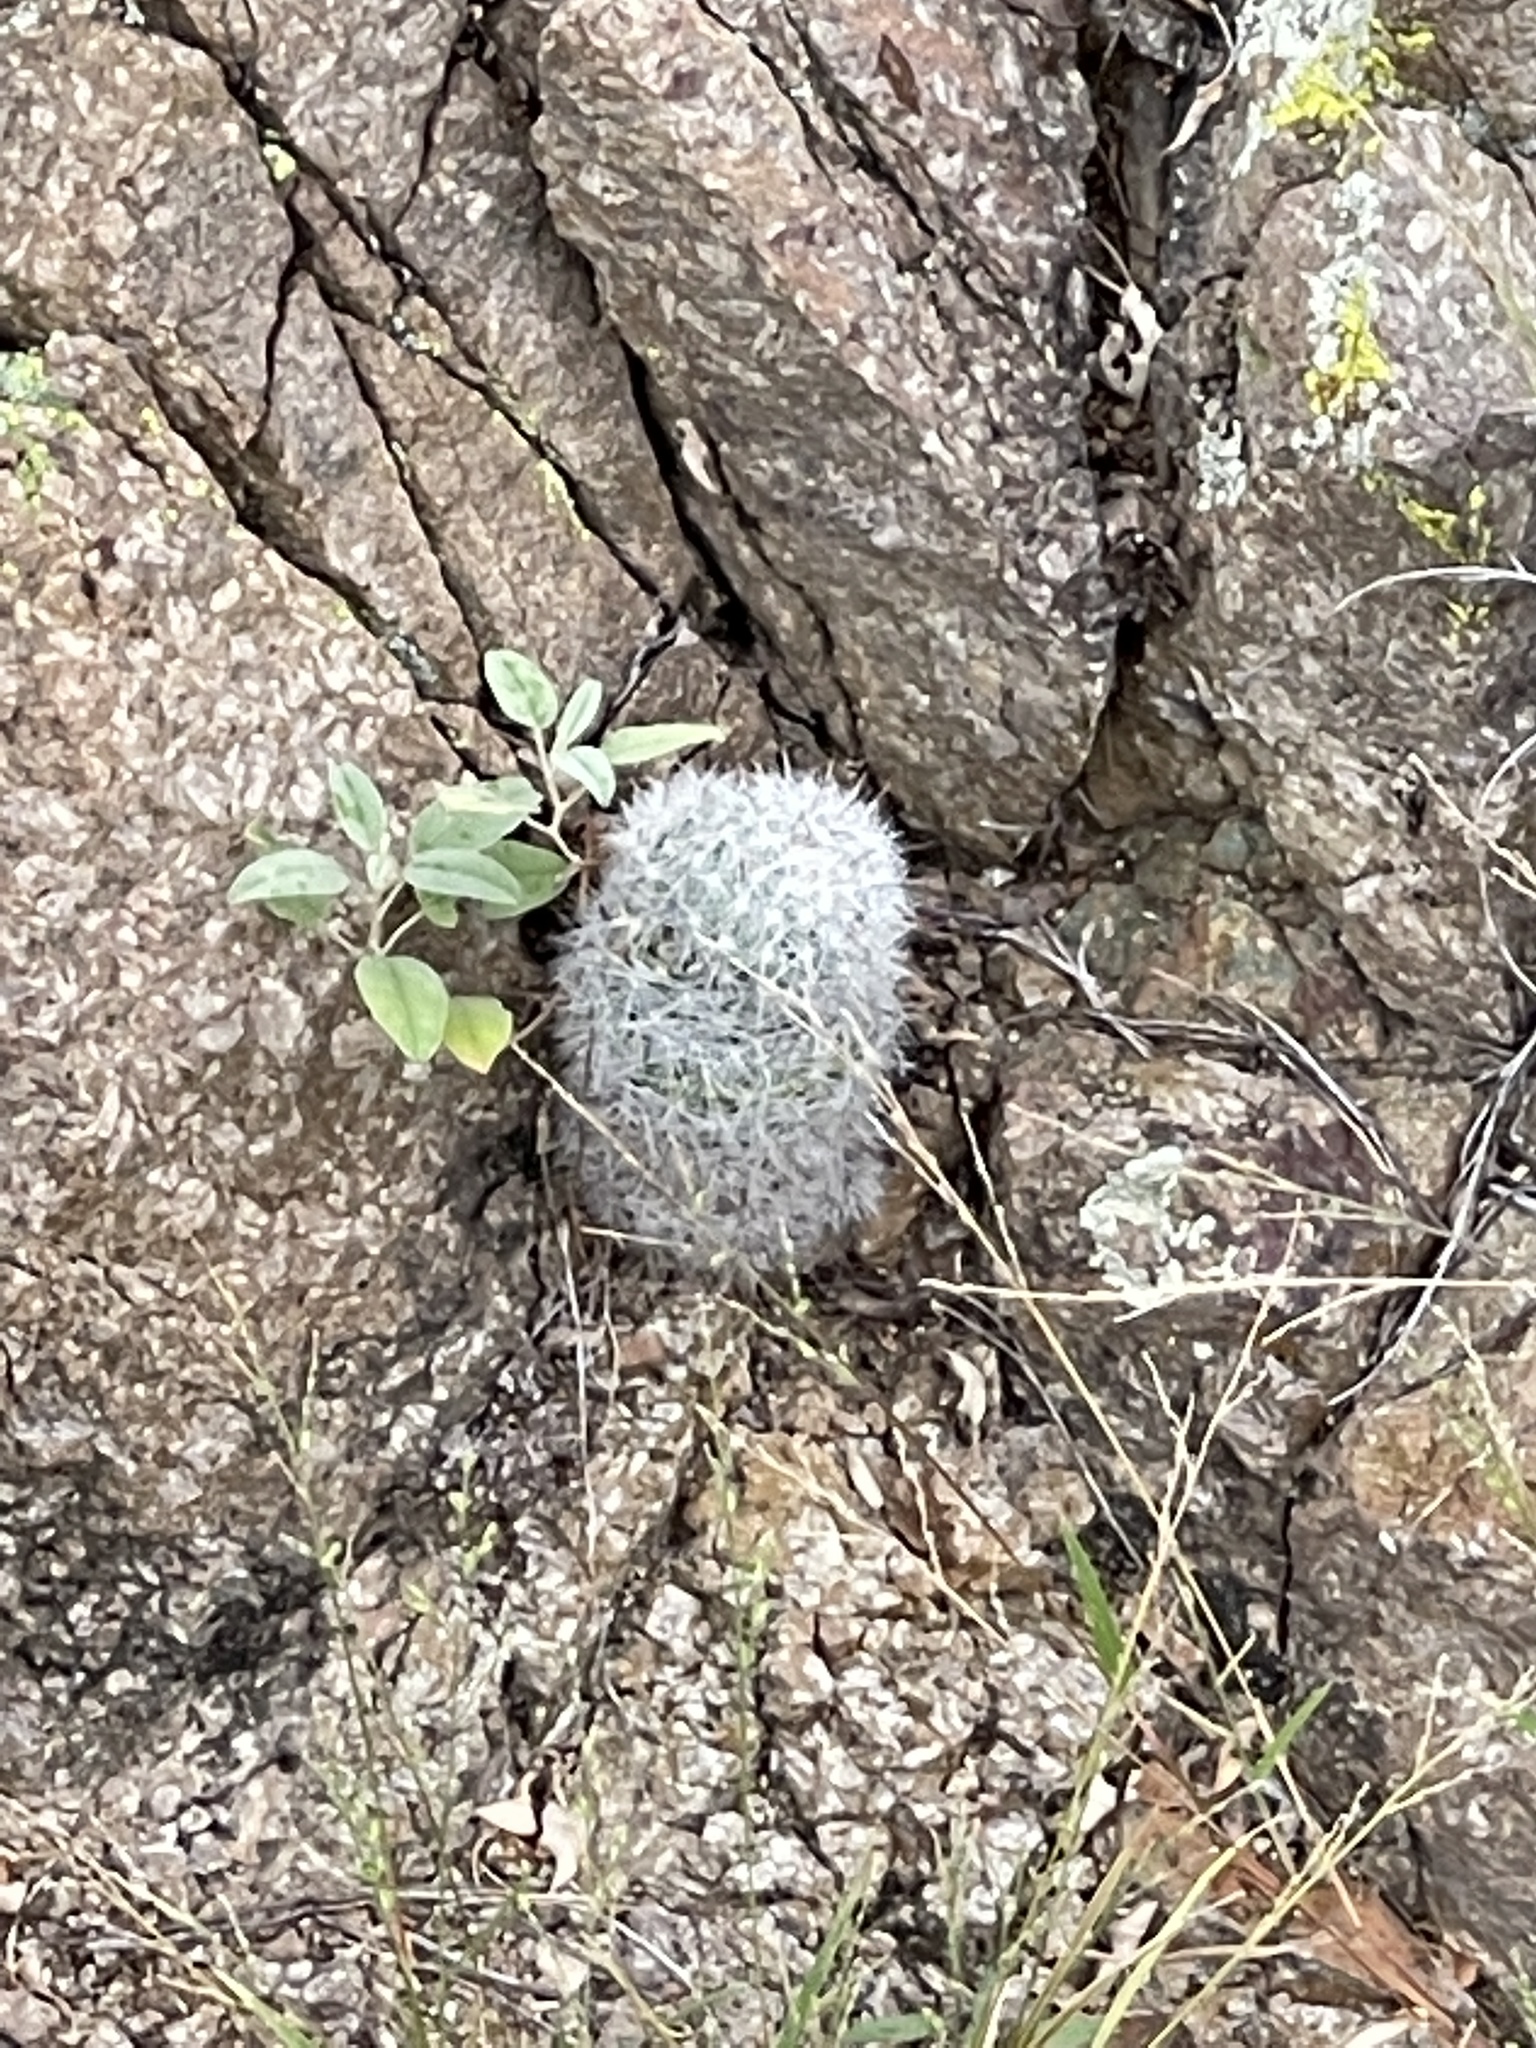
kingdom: Plantae
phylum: Tracheophyta
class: Magnoliopsida
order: Caryophyllales
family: Cactaceae
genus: Cochemiea
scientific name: Cochemiea grahamii
